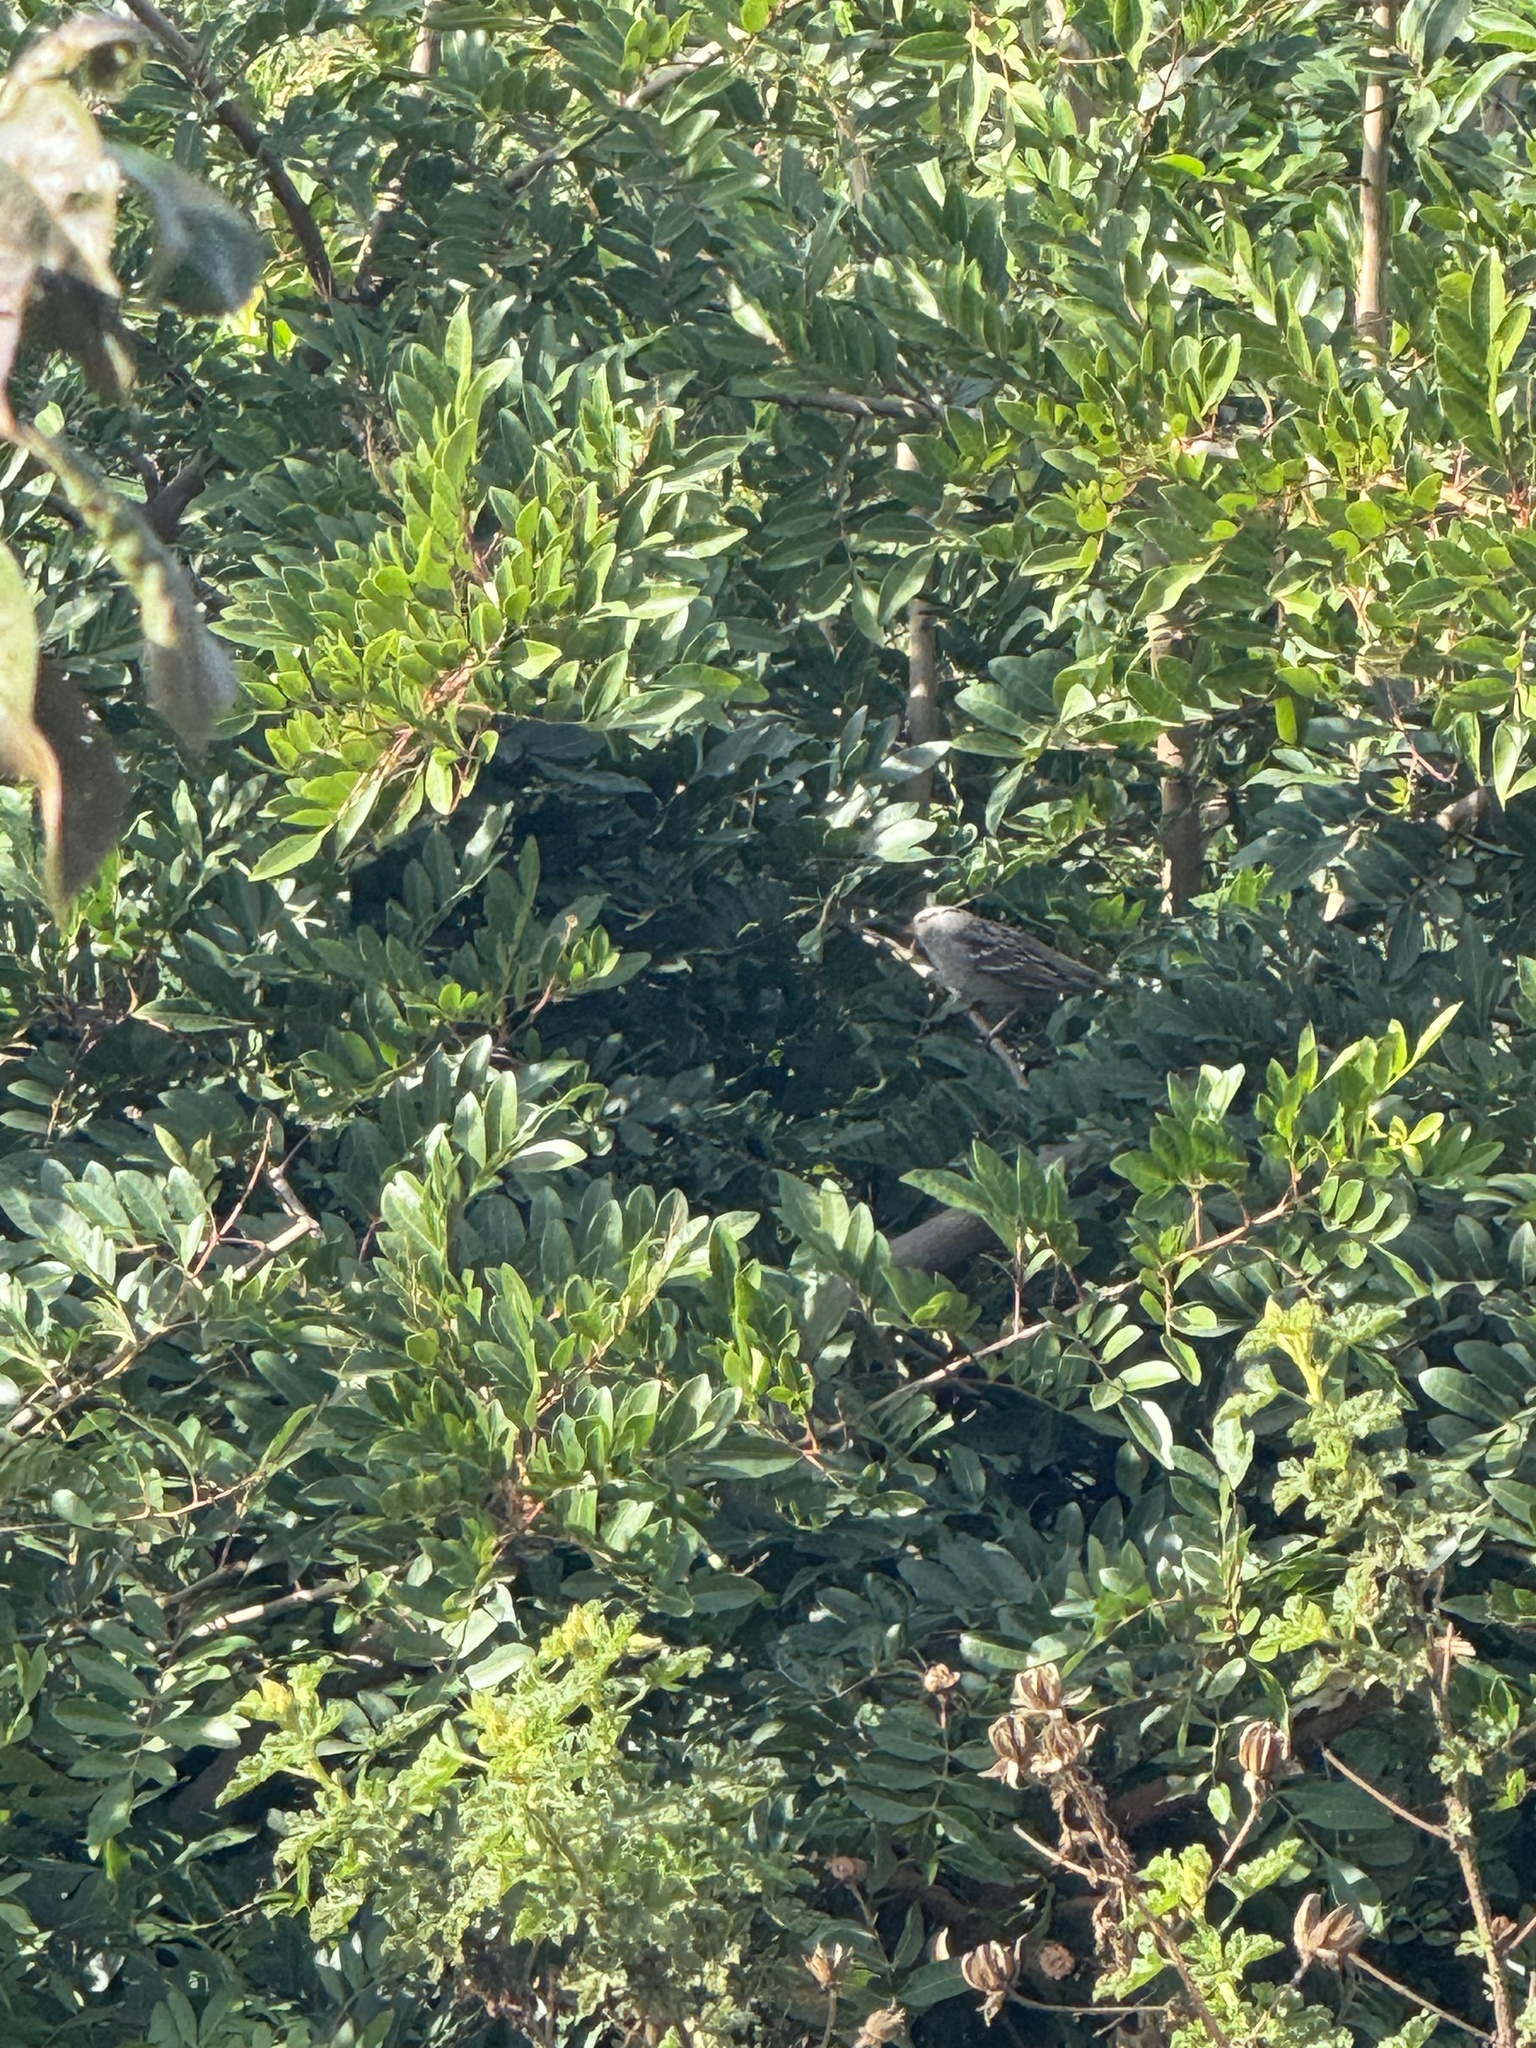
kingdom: Animalia
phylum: Chordata
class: Aves
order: Passeriformes
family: Passerellidae
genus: Zonotrichia
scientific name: Zonotrichia leucophrys
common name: White-crowned sparrow
